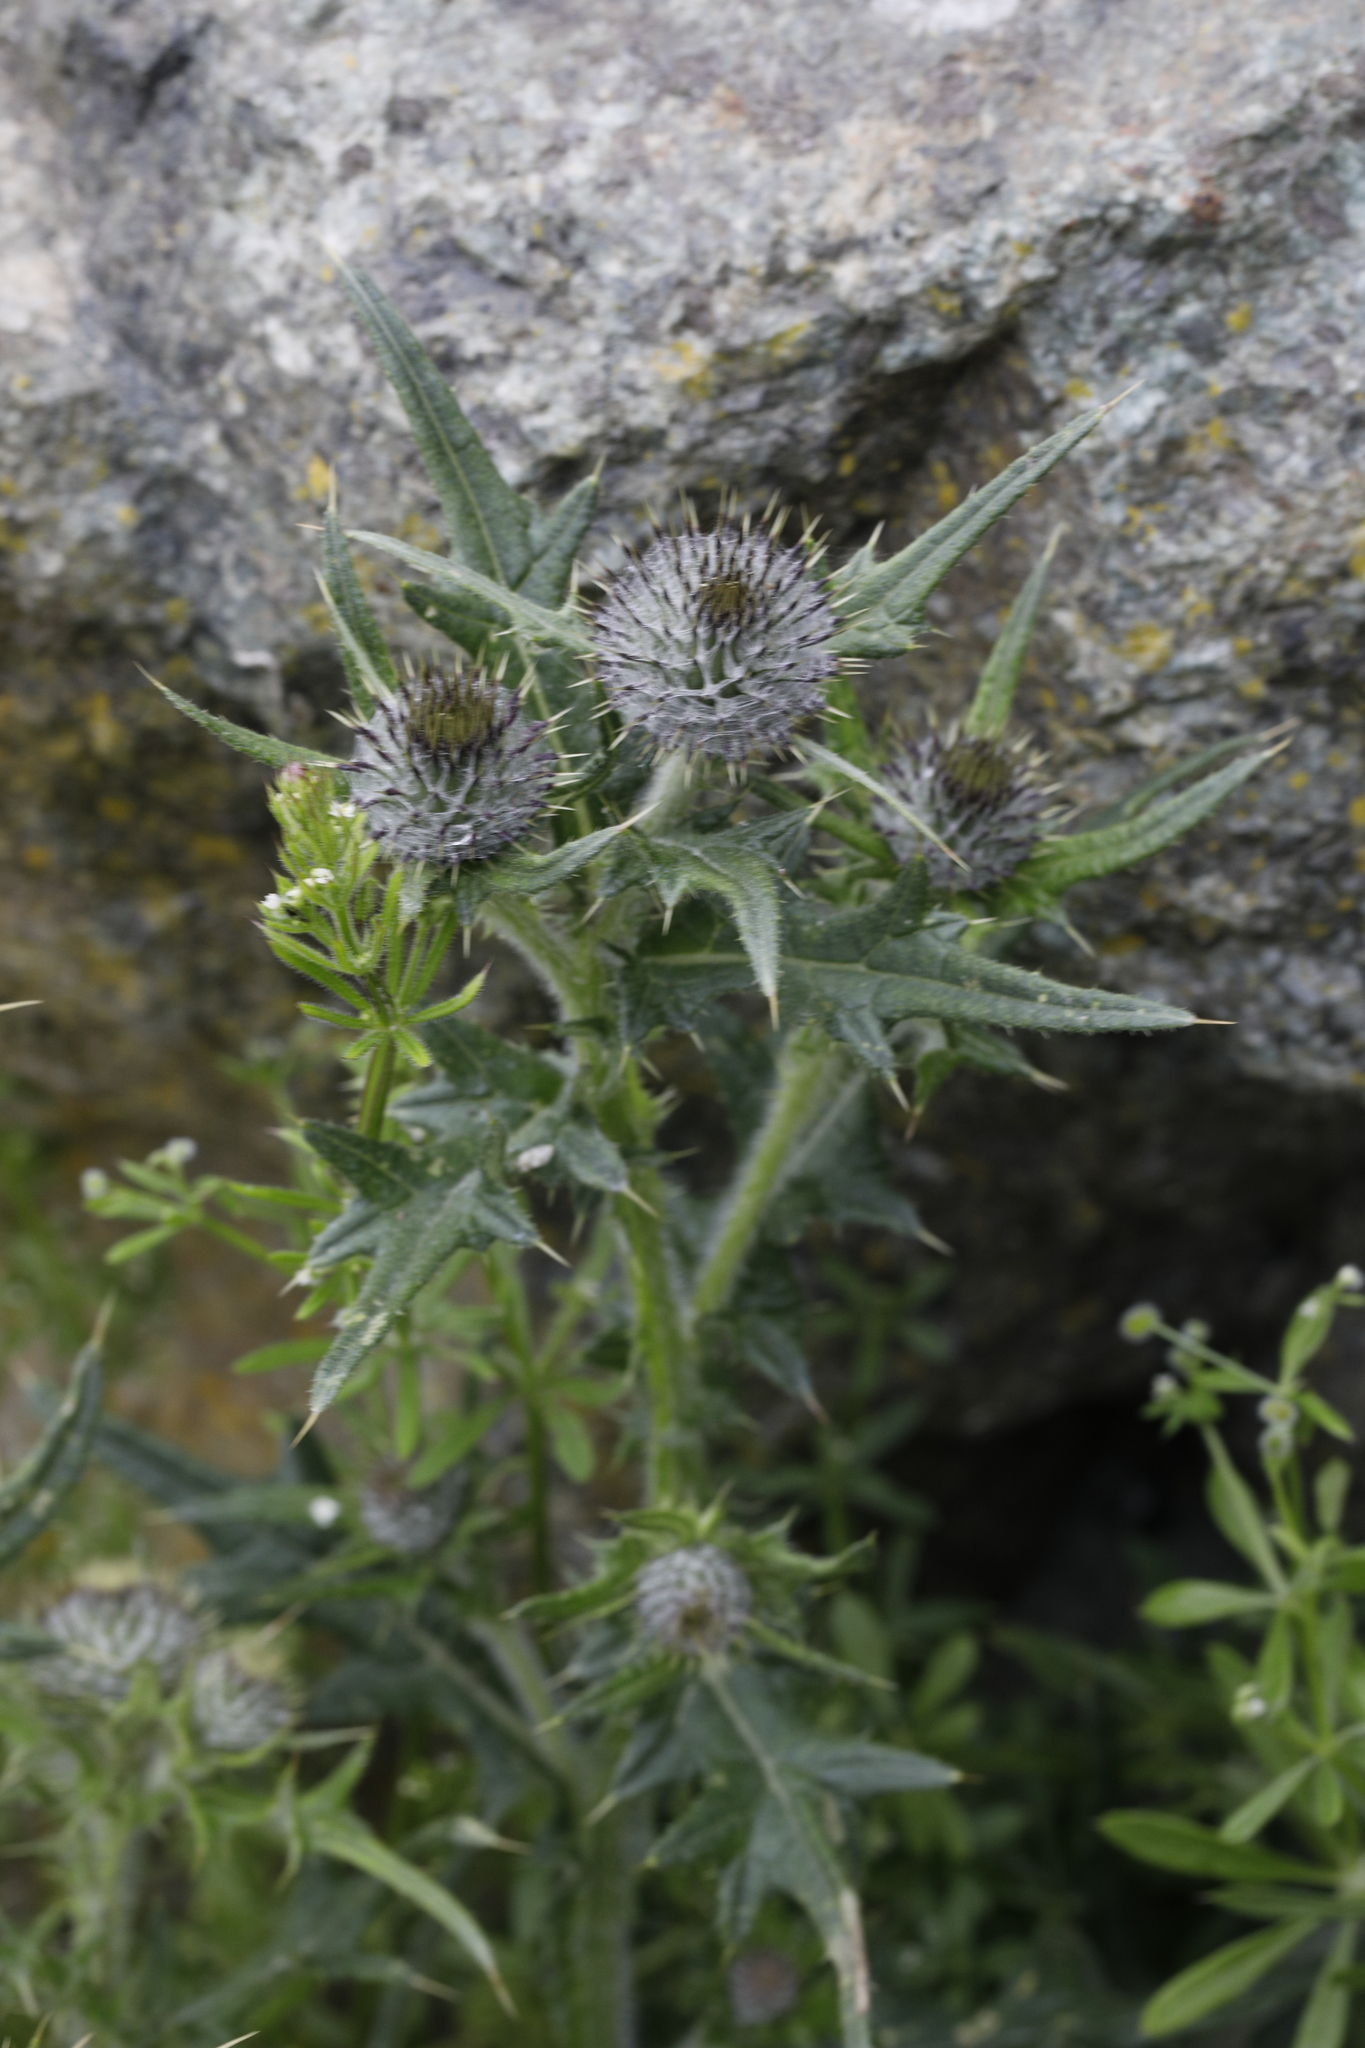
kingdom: Plantae
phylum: Tracheophyta
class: Magnoliopsida
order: Asterales
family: Asteraceae
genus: Cirsium
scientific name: Cirsium vulgare
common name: Bull thistle
